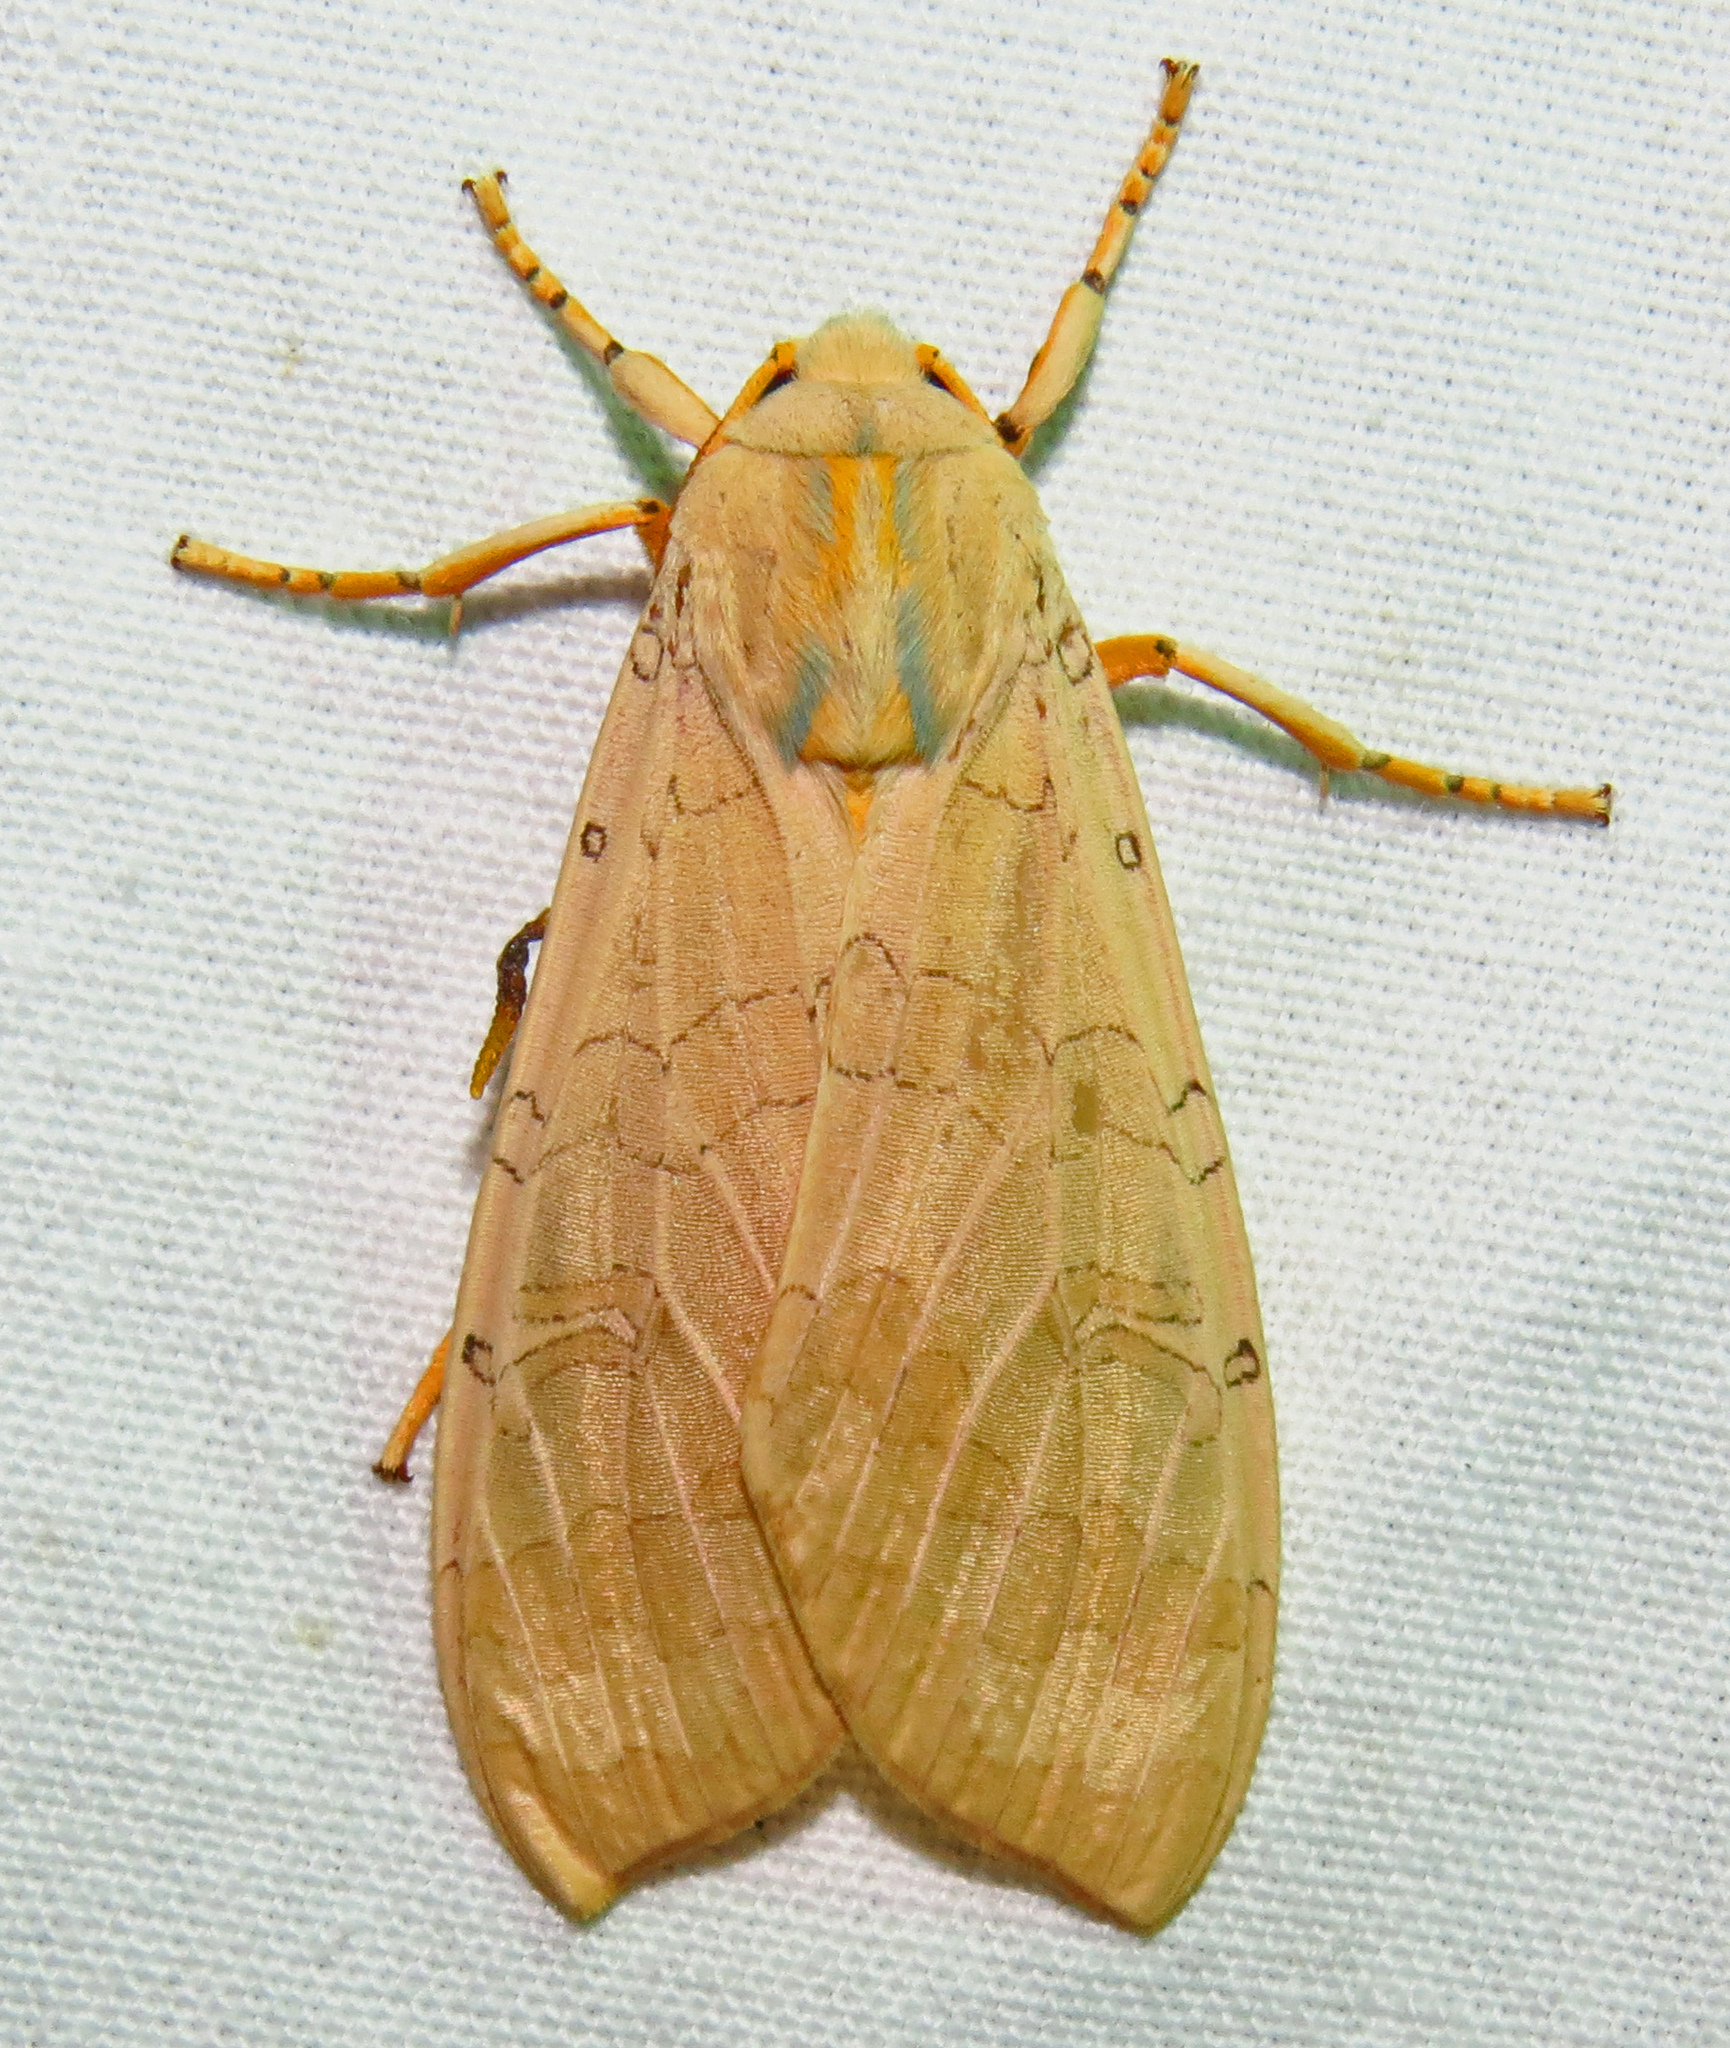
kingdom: Animalia
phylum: Arthropoda
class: Insecta
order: Lepidoptera
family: Erebidae
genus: Halysidota
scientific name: Halysidota
